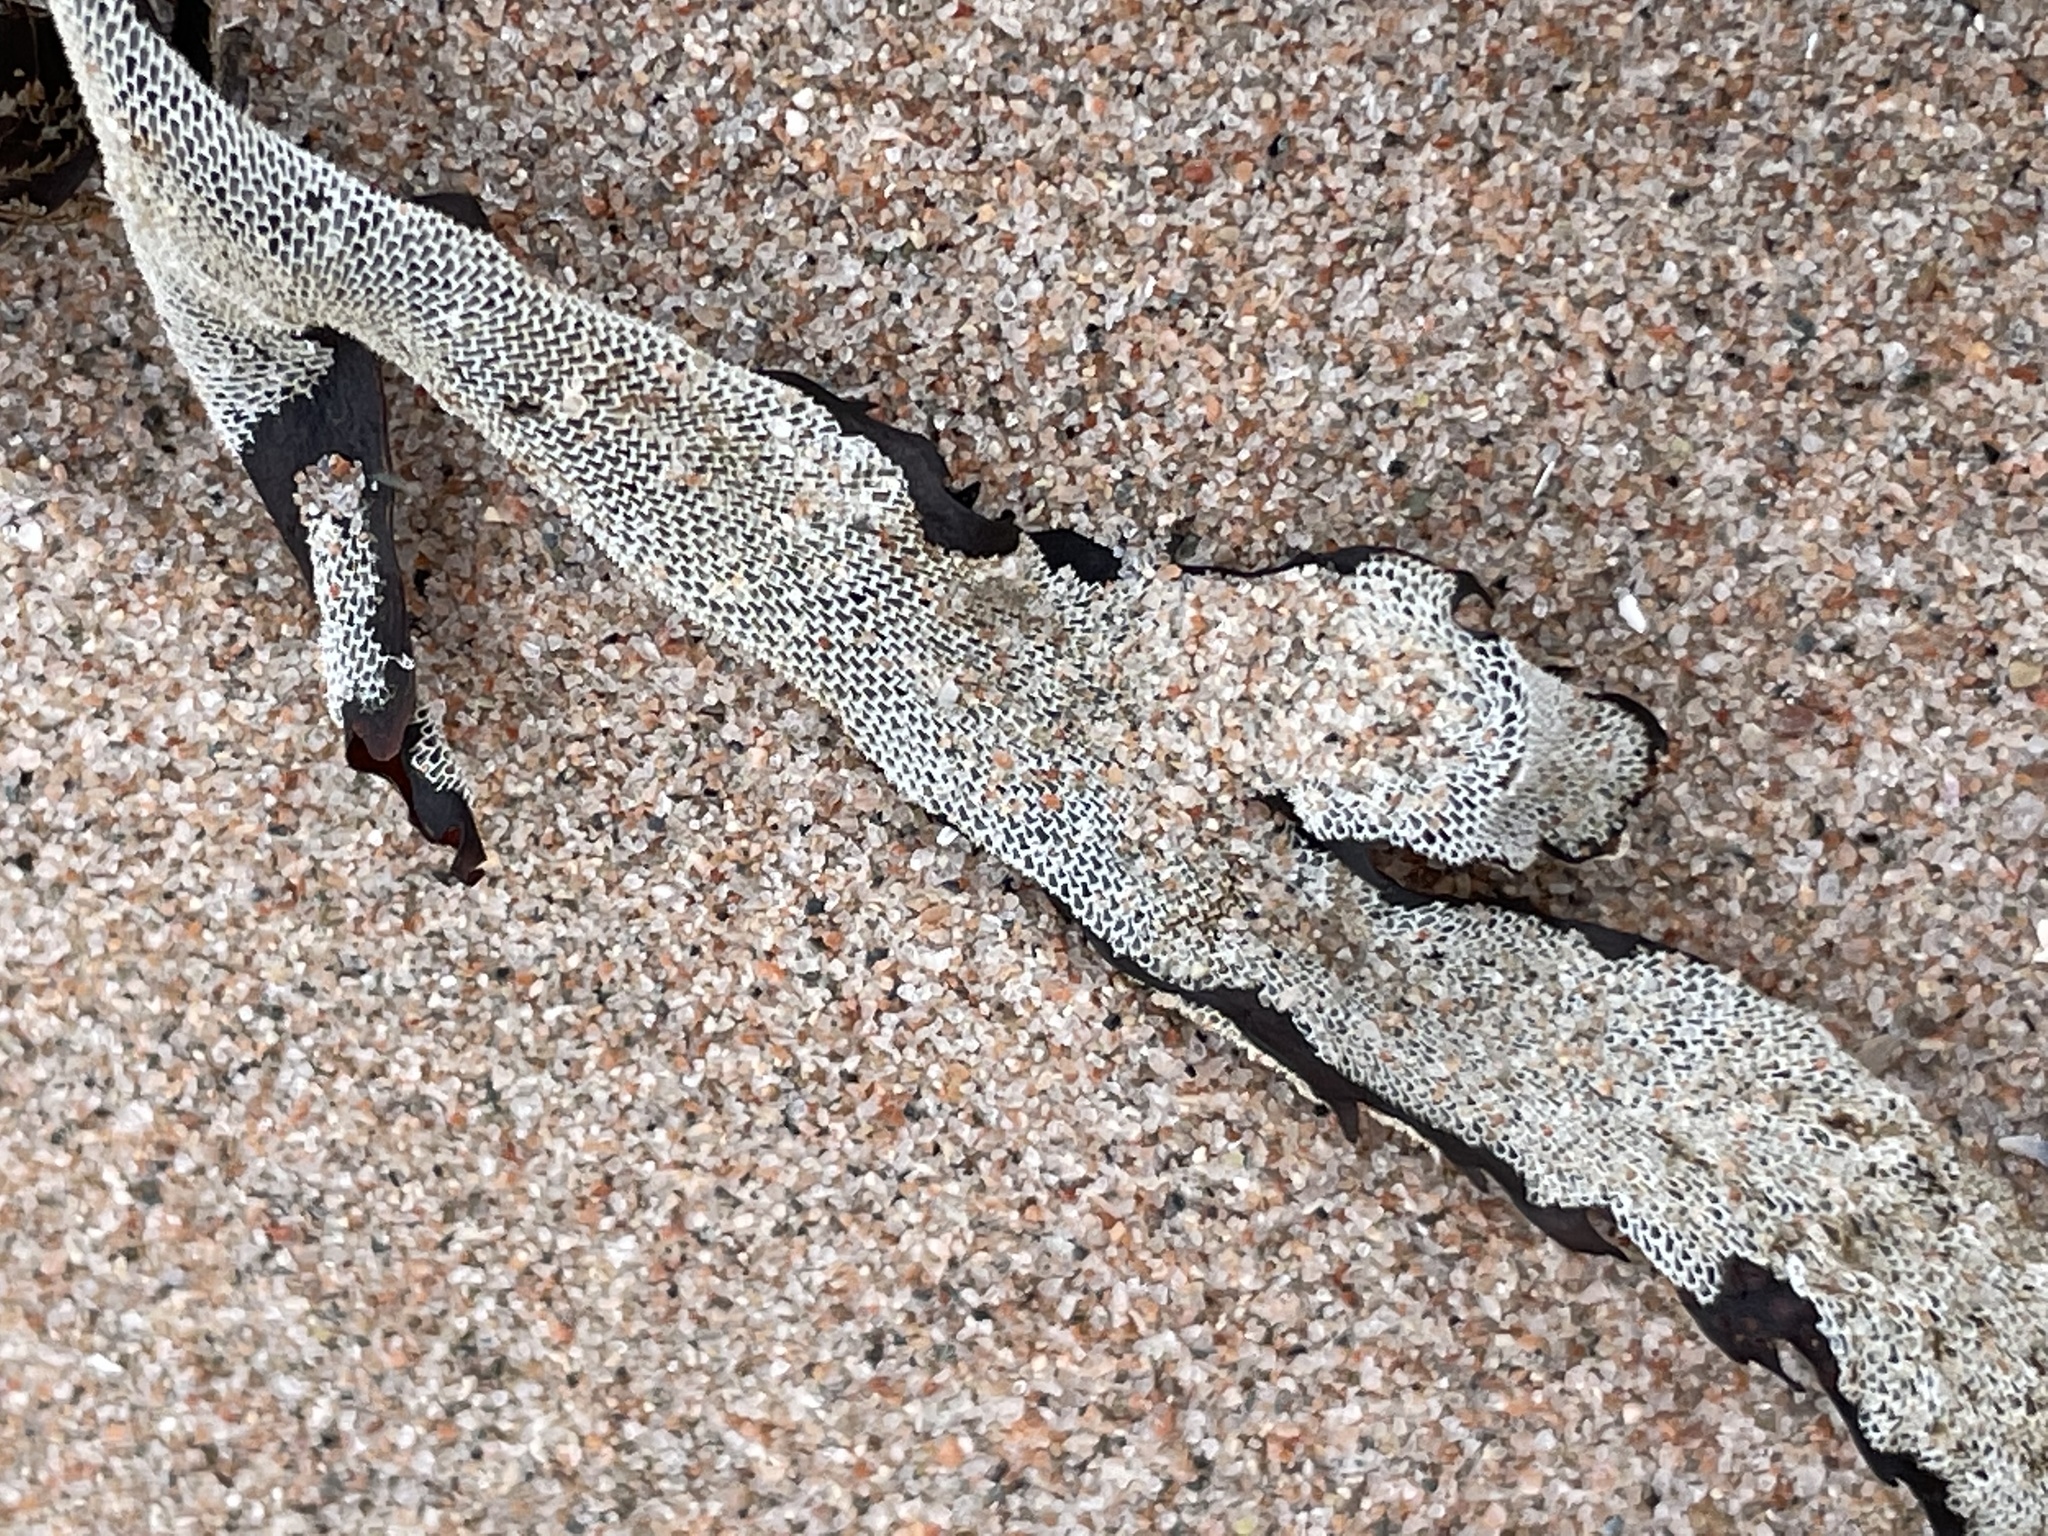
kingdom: Animalia
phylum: Bryozoa
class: Gymnolaemata
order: Cheilostomatida
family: Membraniporidae
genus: Membranipora
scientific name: Membranipora membranacea
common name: Sea mat
